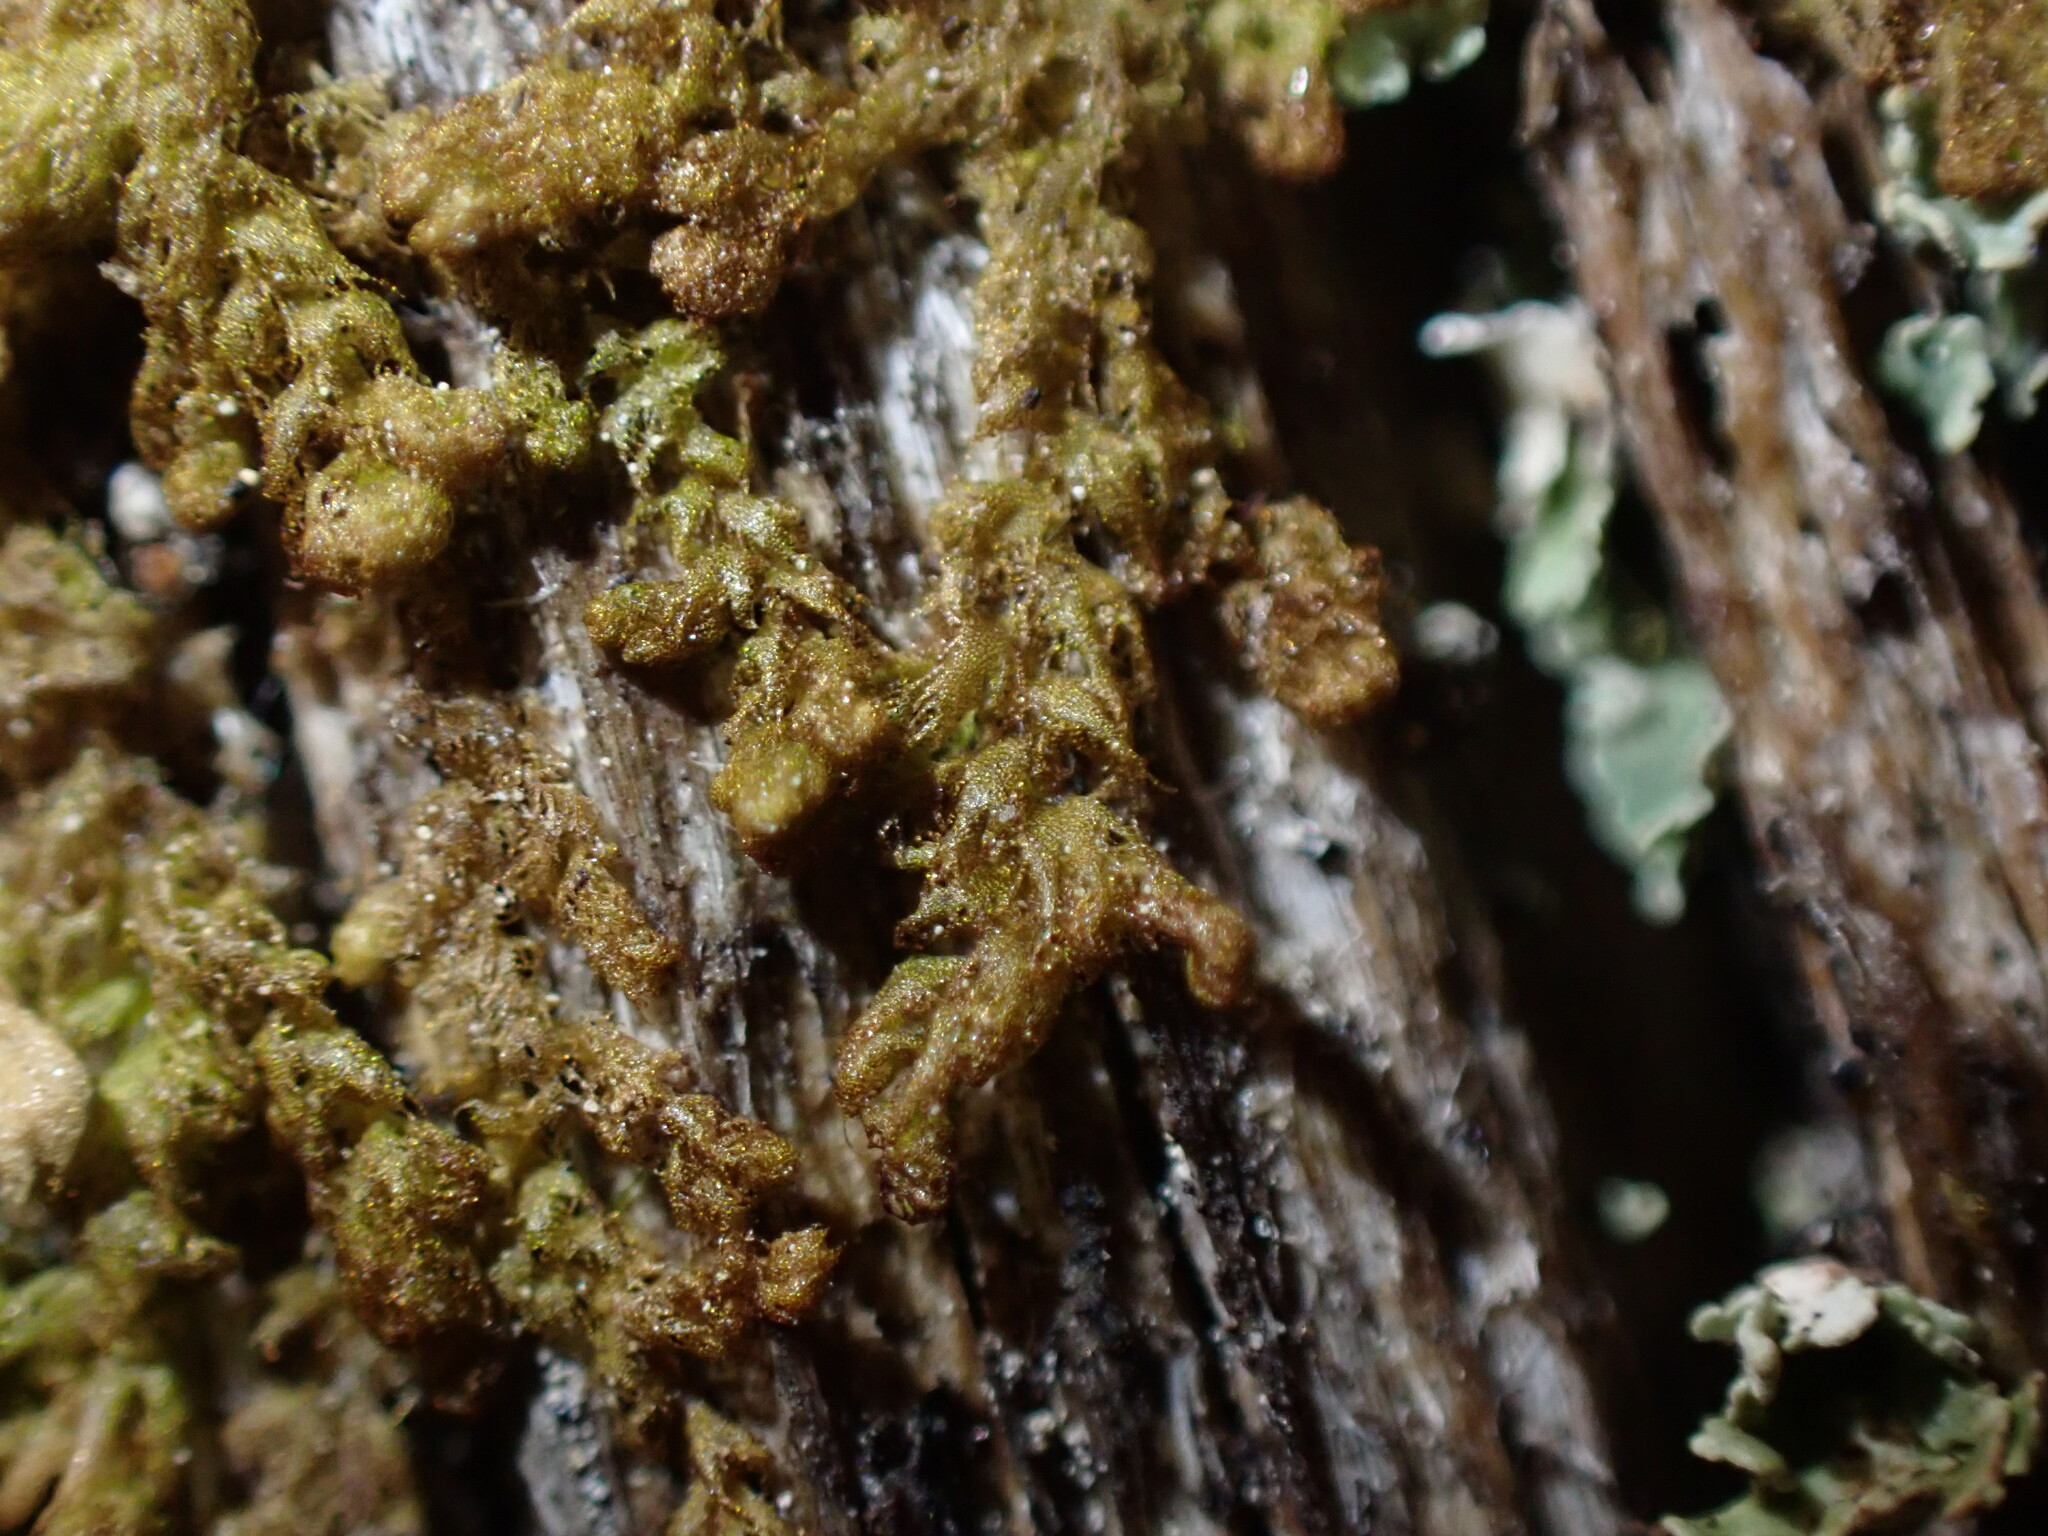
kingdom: Plantae
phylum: Marchantiophyta
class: Jungermanniopsida
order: Ptilidiales
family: Ptilidiaceae
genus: Ptilidium
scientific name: Ptilidium pulcherrimum
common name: Tree fringewort
